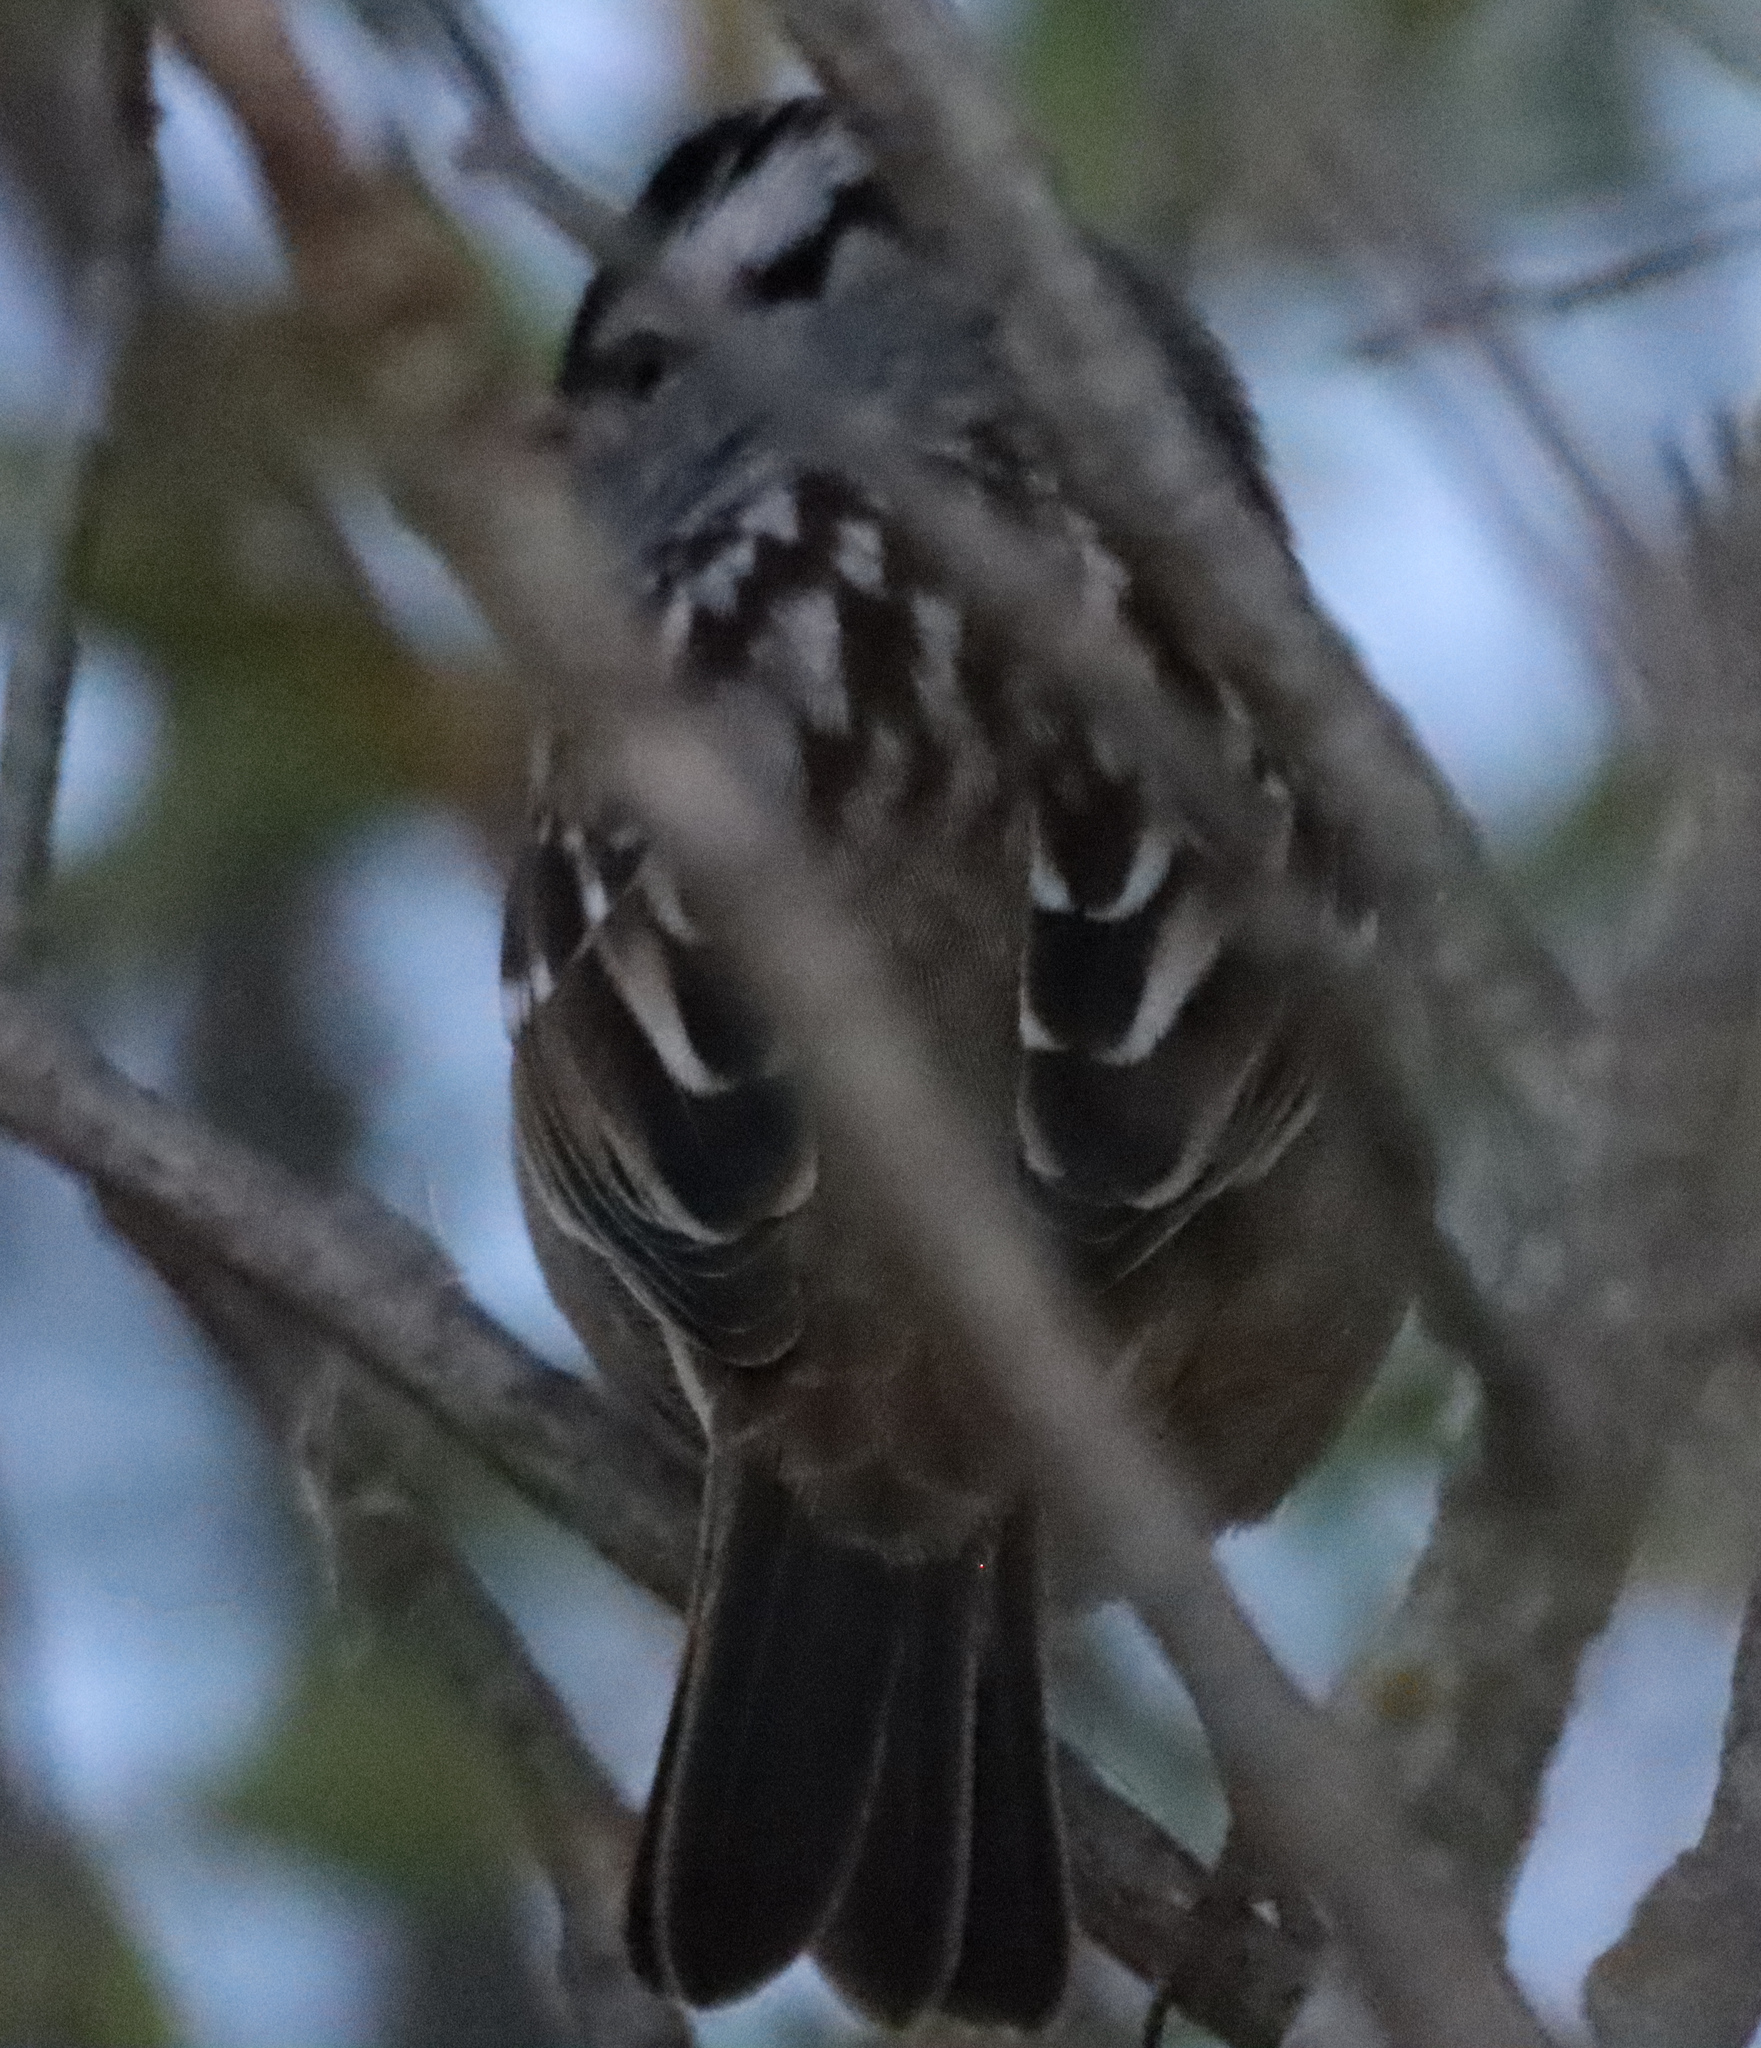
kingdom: Animalia
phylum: Chordata
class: Aves
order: Passeriformes
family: Passerellidae
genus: Zonotrichia
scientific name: Zonotrichia leucophrys
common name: White-crowned sparrow
